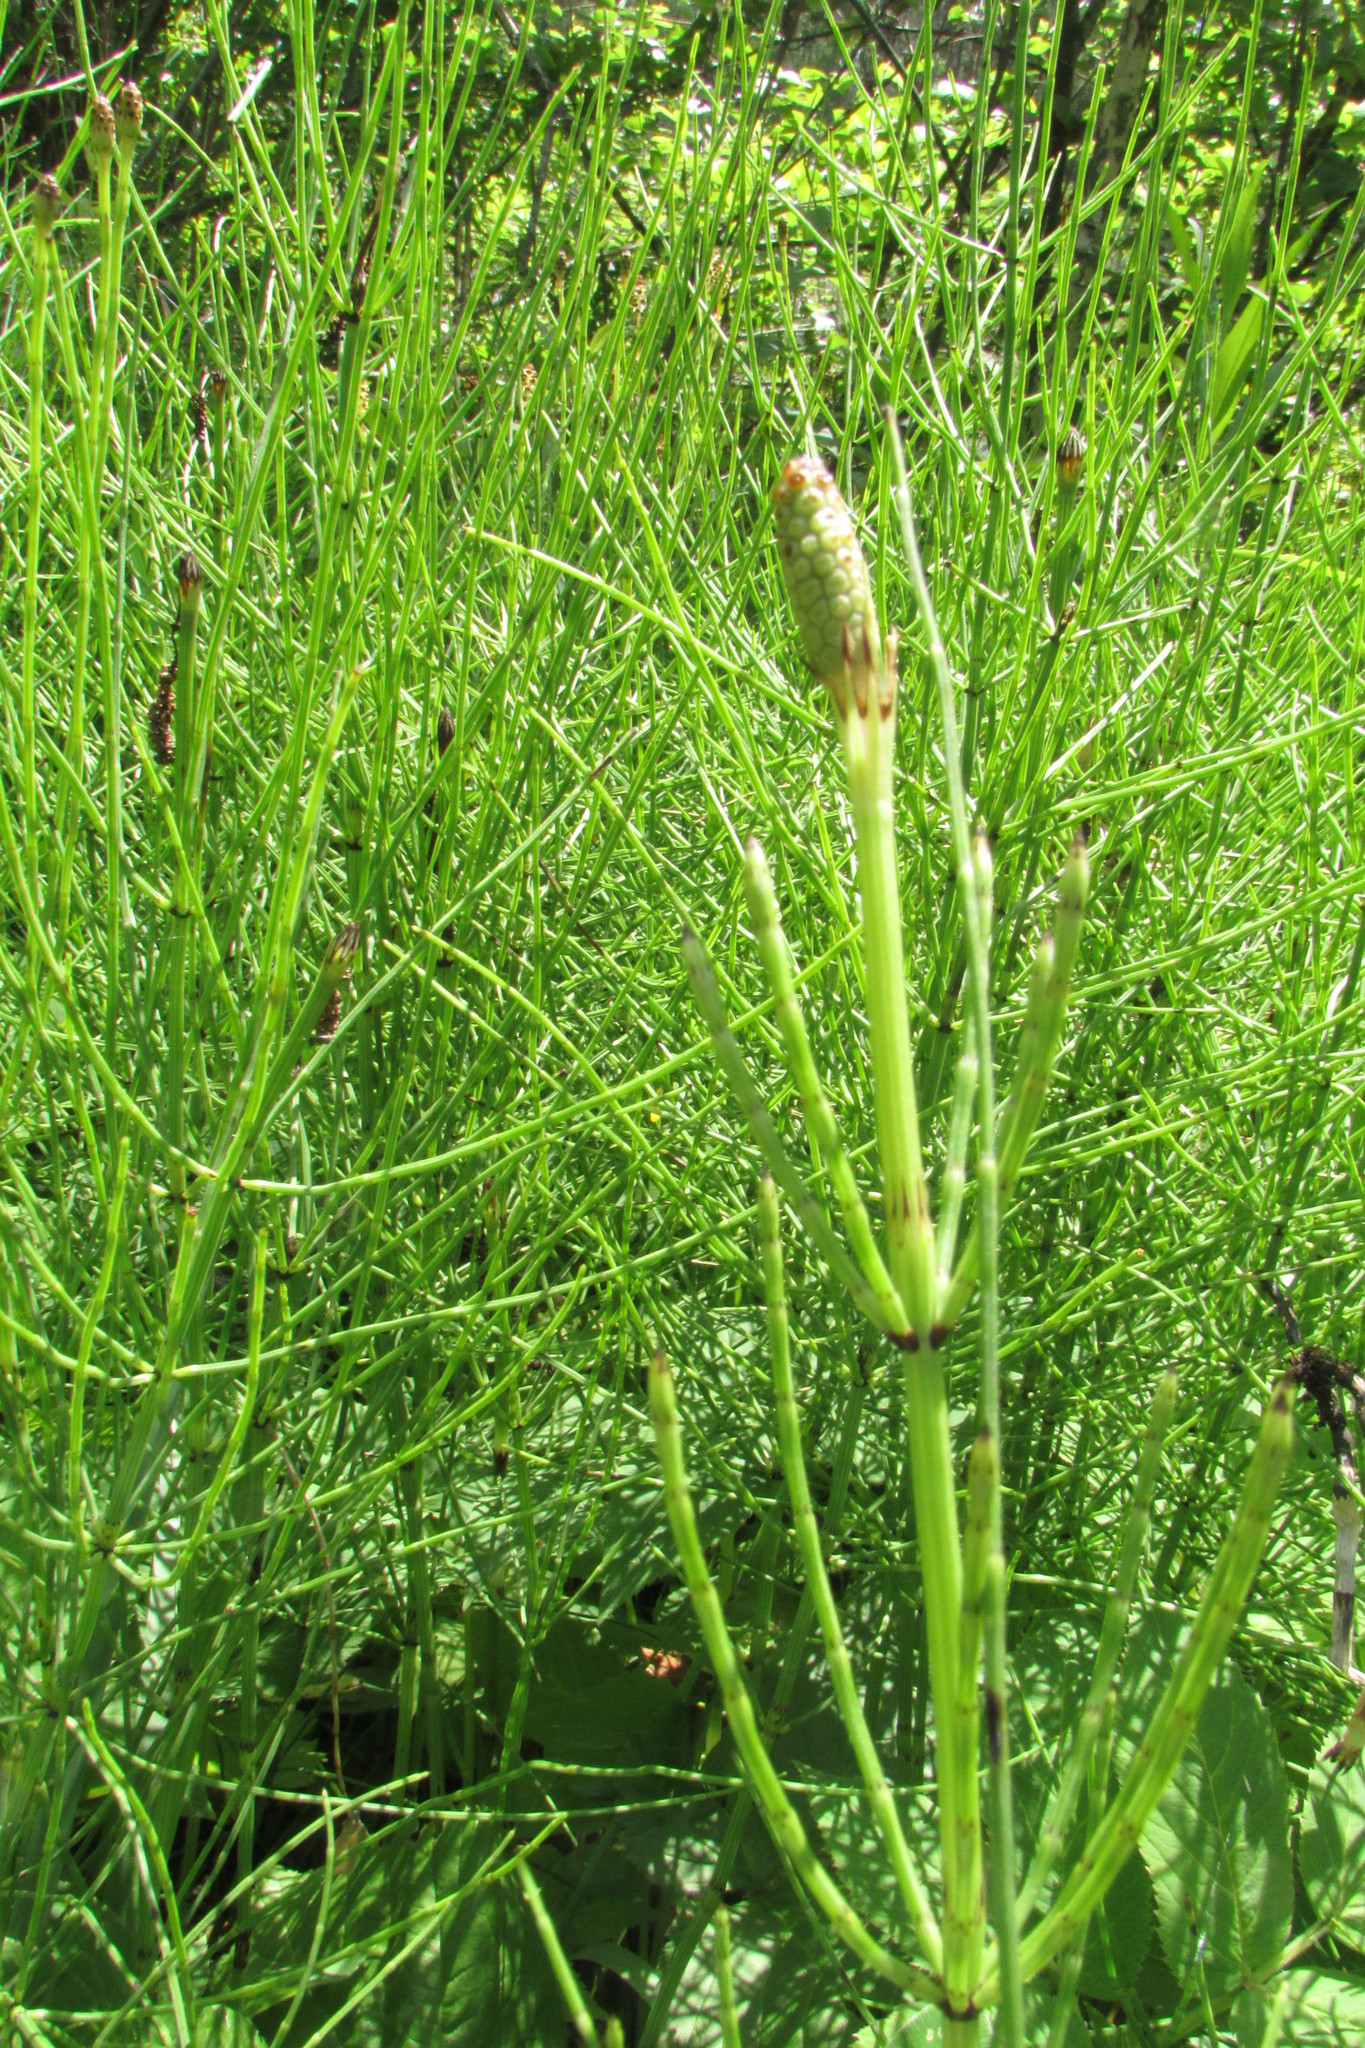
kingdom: Plantae
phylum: Tracheophyta
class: Polypodiopsida
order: Equisetales
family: Equisetaceae
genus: Equisetum
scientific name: Equisetum palustre
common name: Marsh horsetail
